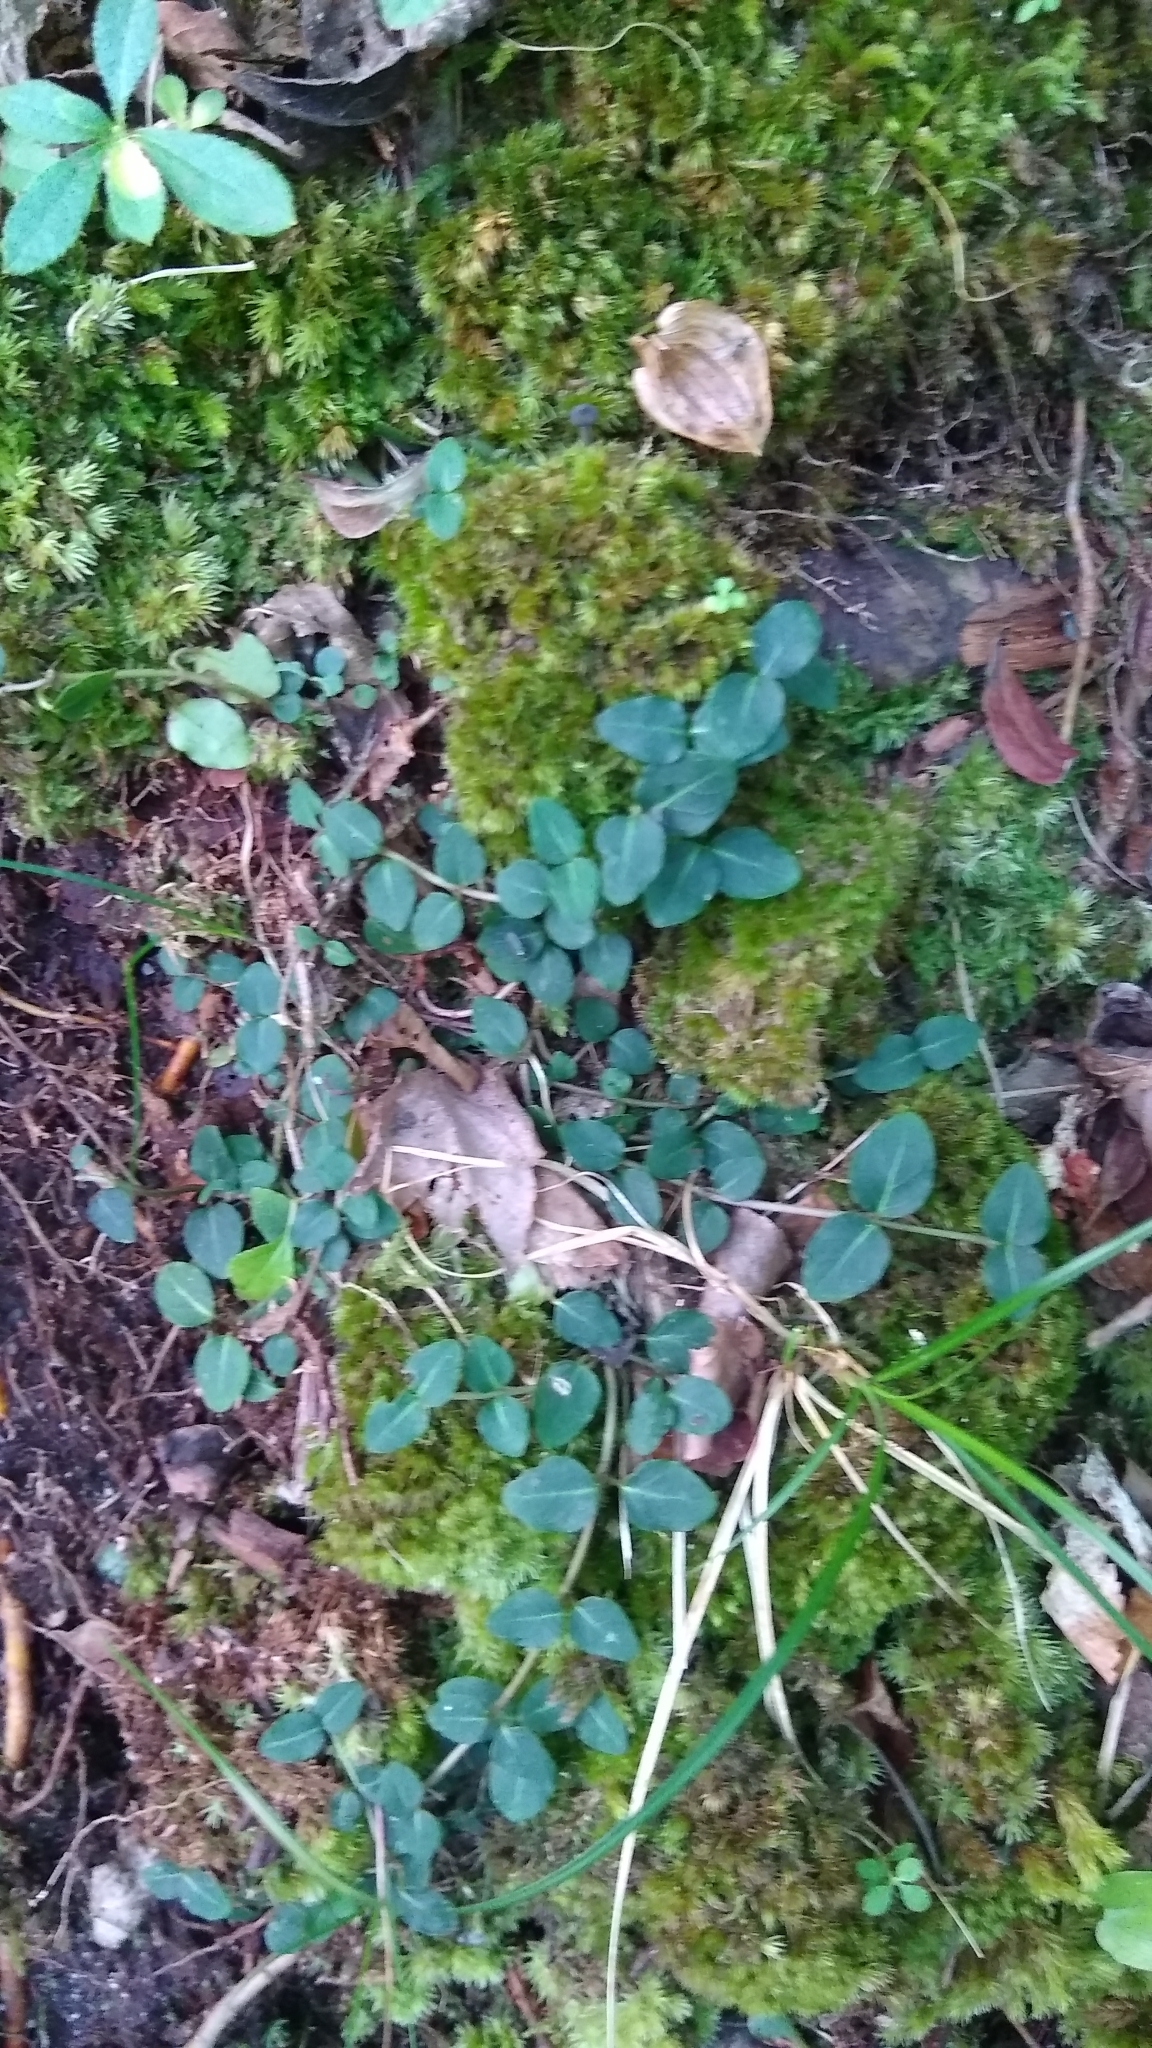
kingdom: Plantae
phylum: Tracheophyta
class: Magnoliopsida
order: Gentianales
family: Rubiaceae
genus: Mitchella
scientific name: Mitchella repens
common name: Partridge-berry
